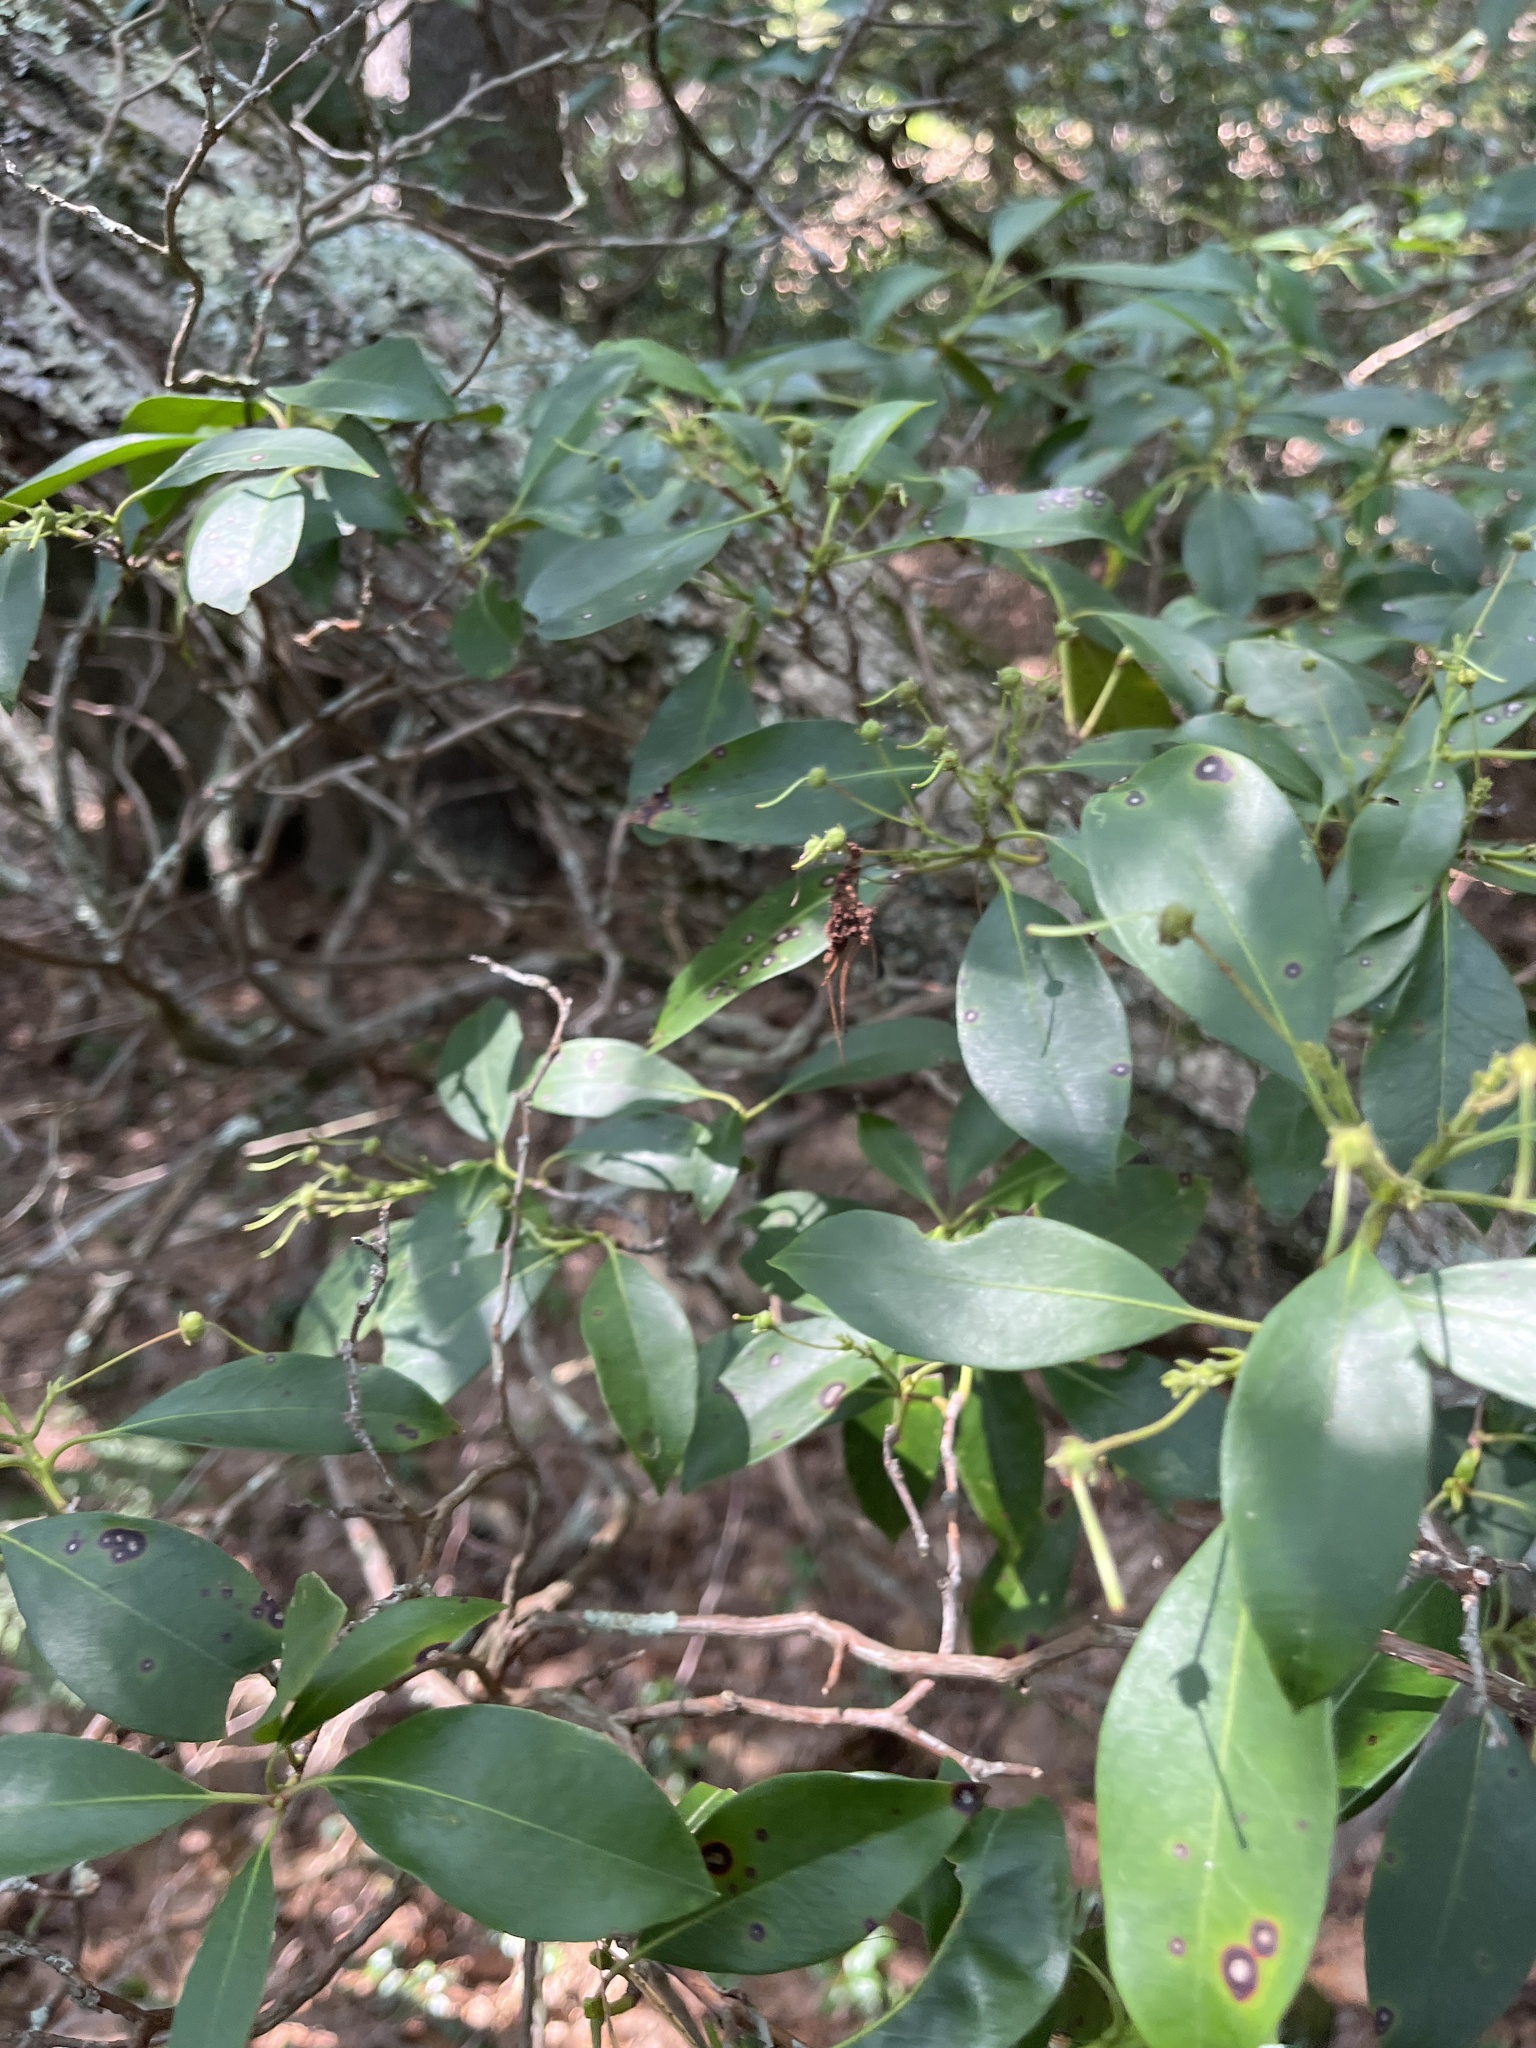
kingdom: Plantae
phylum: Tracheophyta
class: Magnoliopsida
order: Ericales
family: Ericaceae
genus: Kalmia
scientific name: Kalmia latifolia
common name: Mountain-laurel
